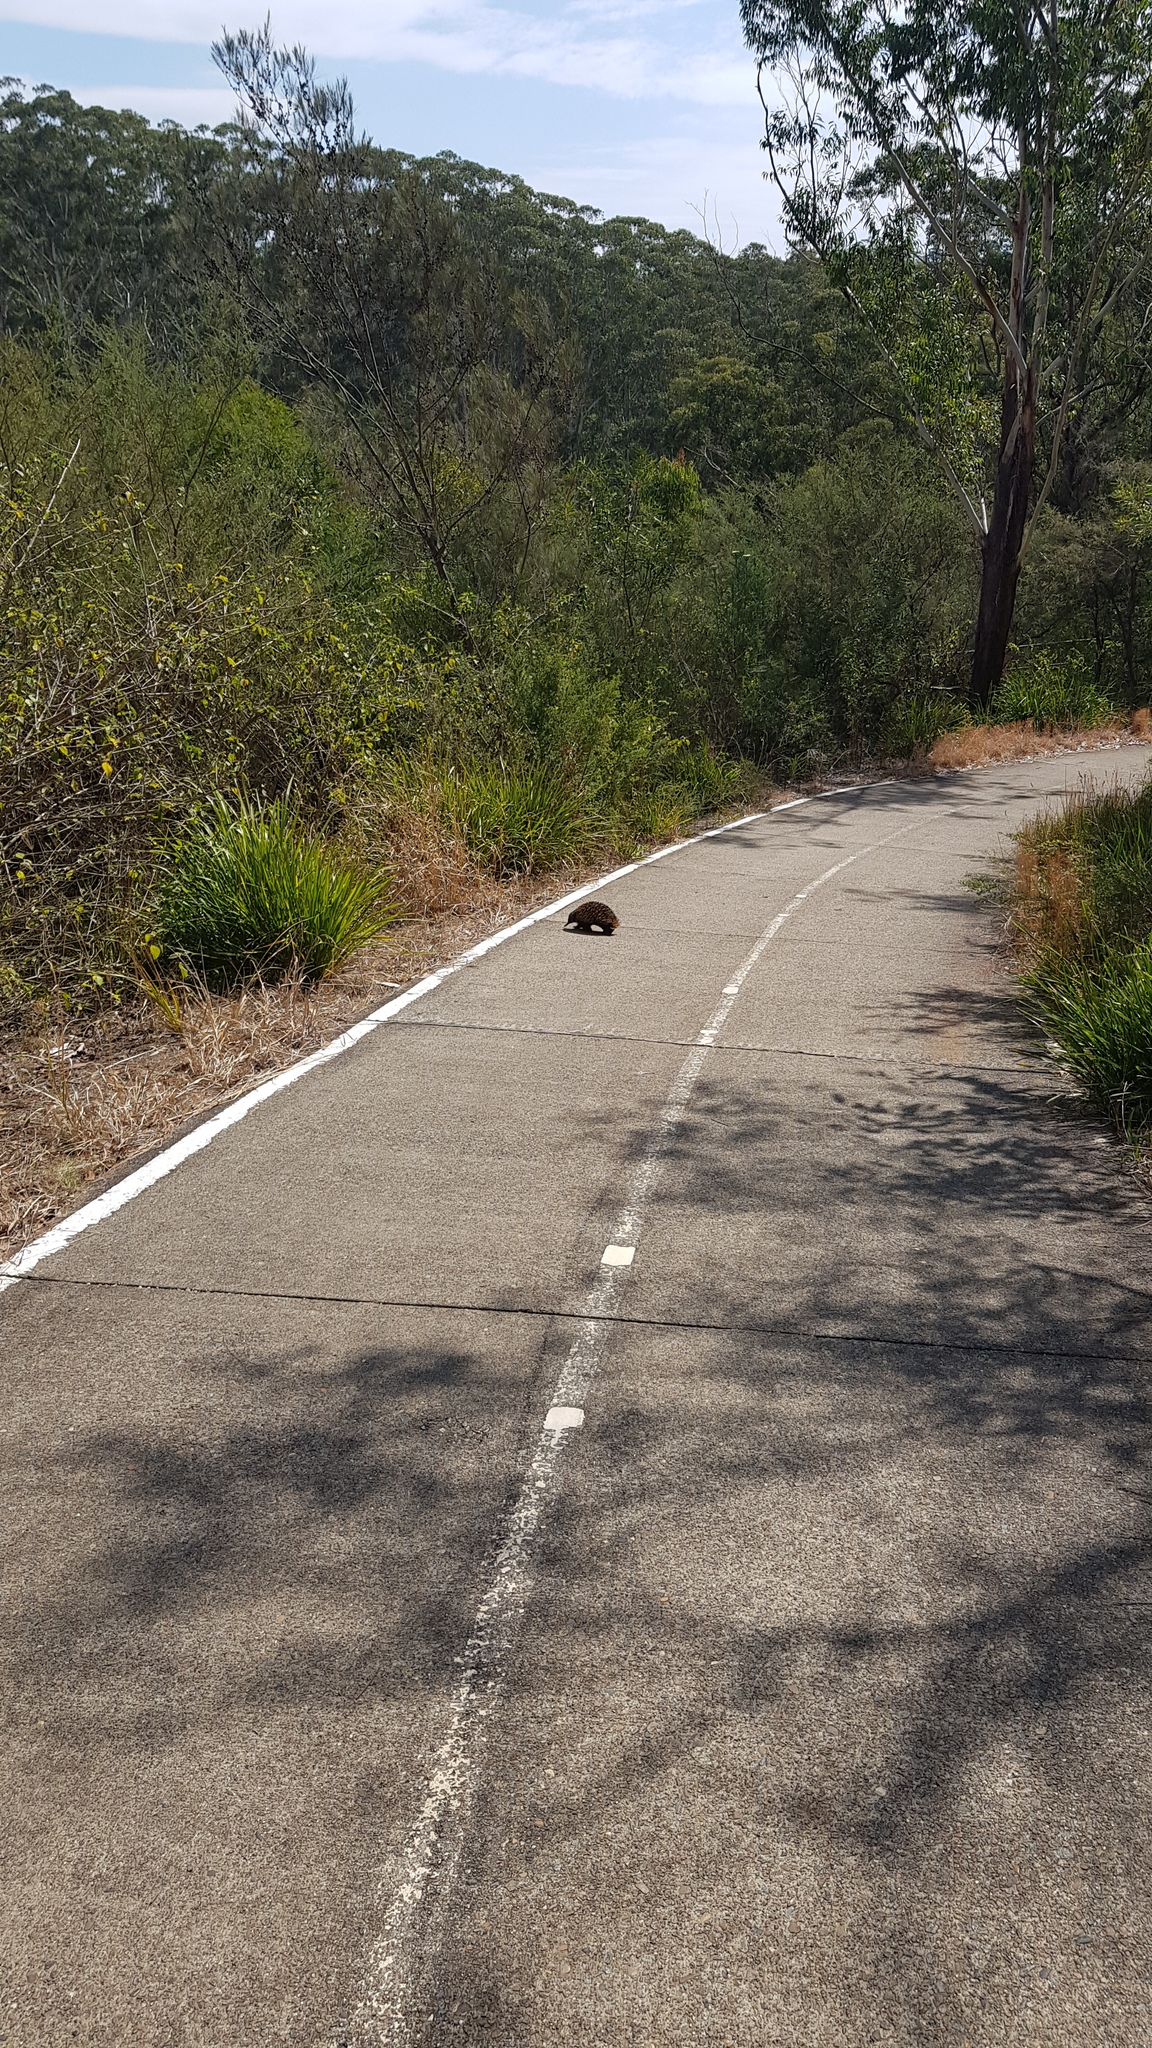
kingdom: Animalia
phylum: Chordata
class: Mammalia
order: Monotremata
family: Tachyglossidae
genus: Tachyglossus
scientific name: Tachyglossus aculeatus
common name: Short-beaked echidna
